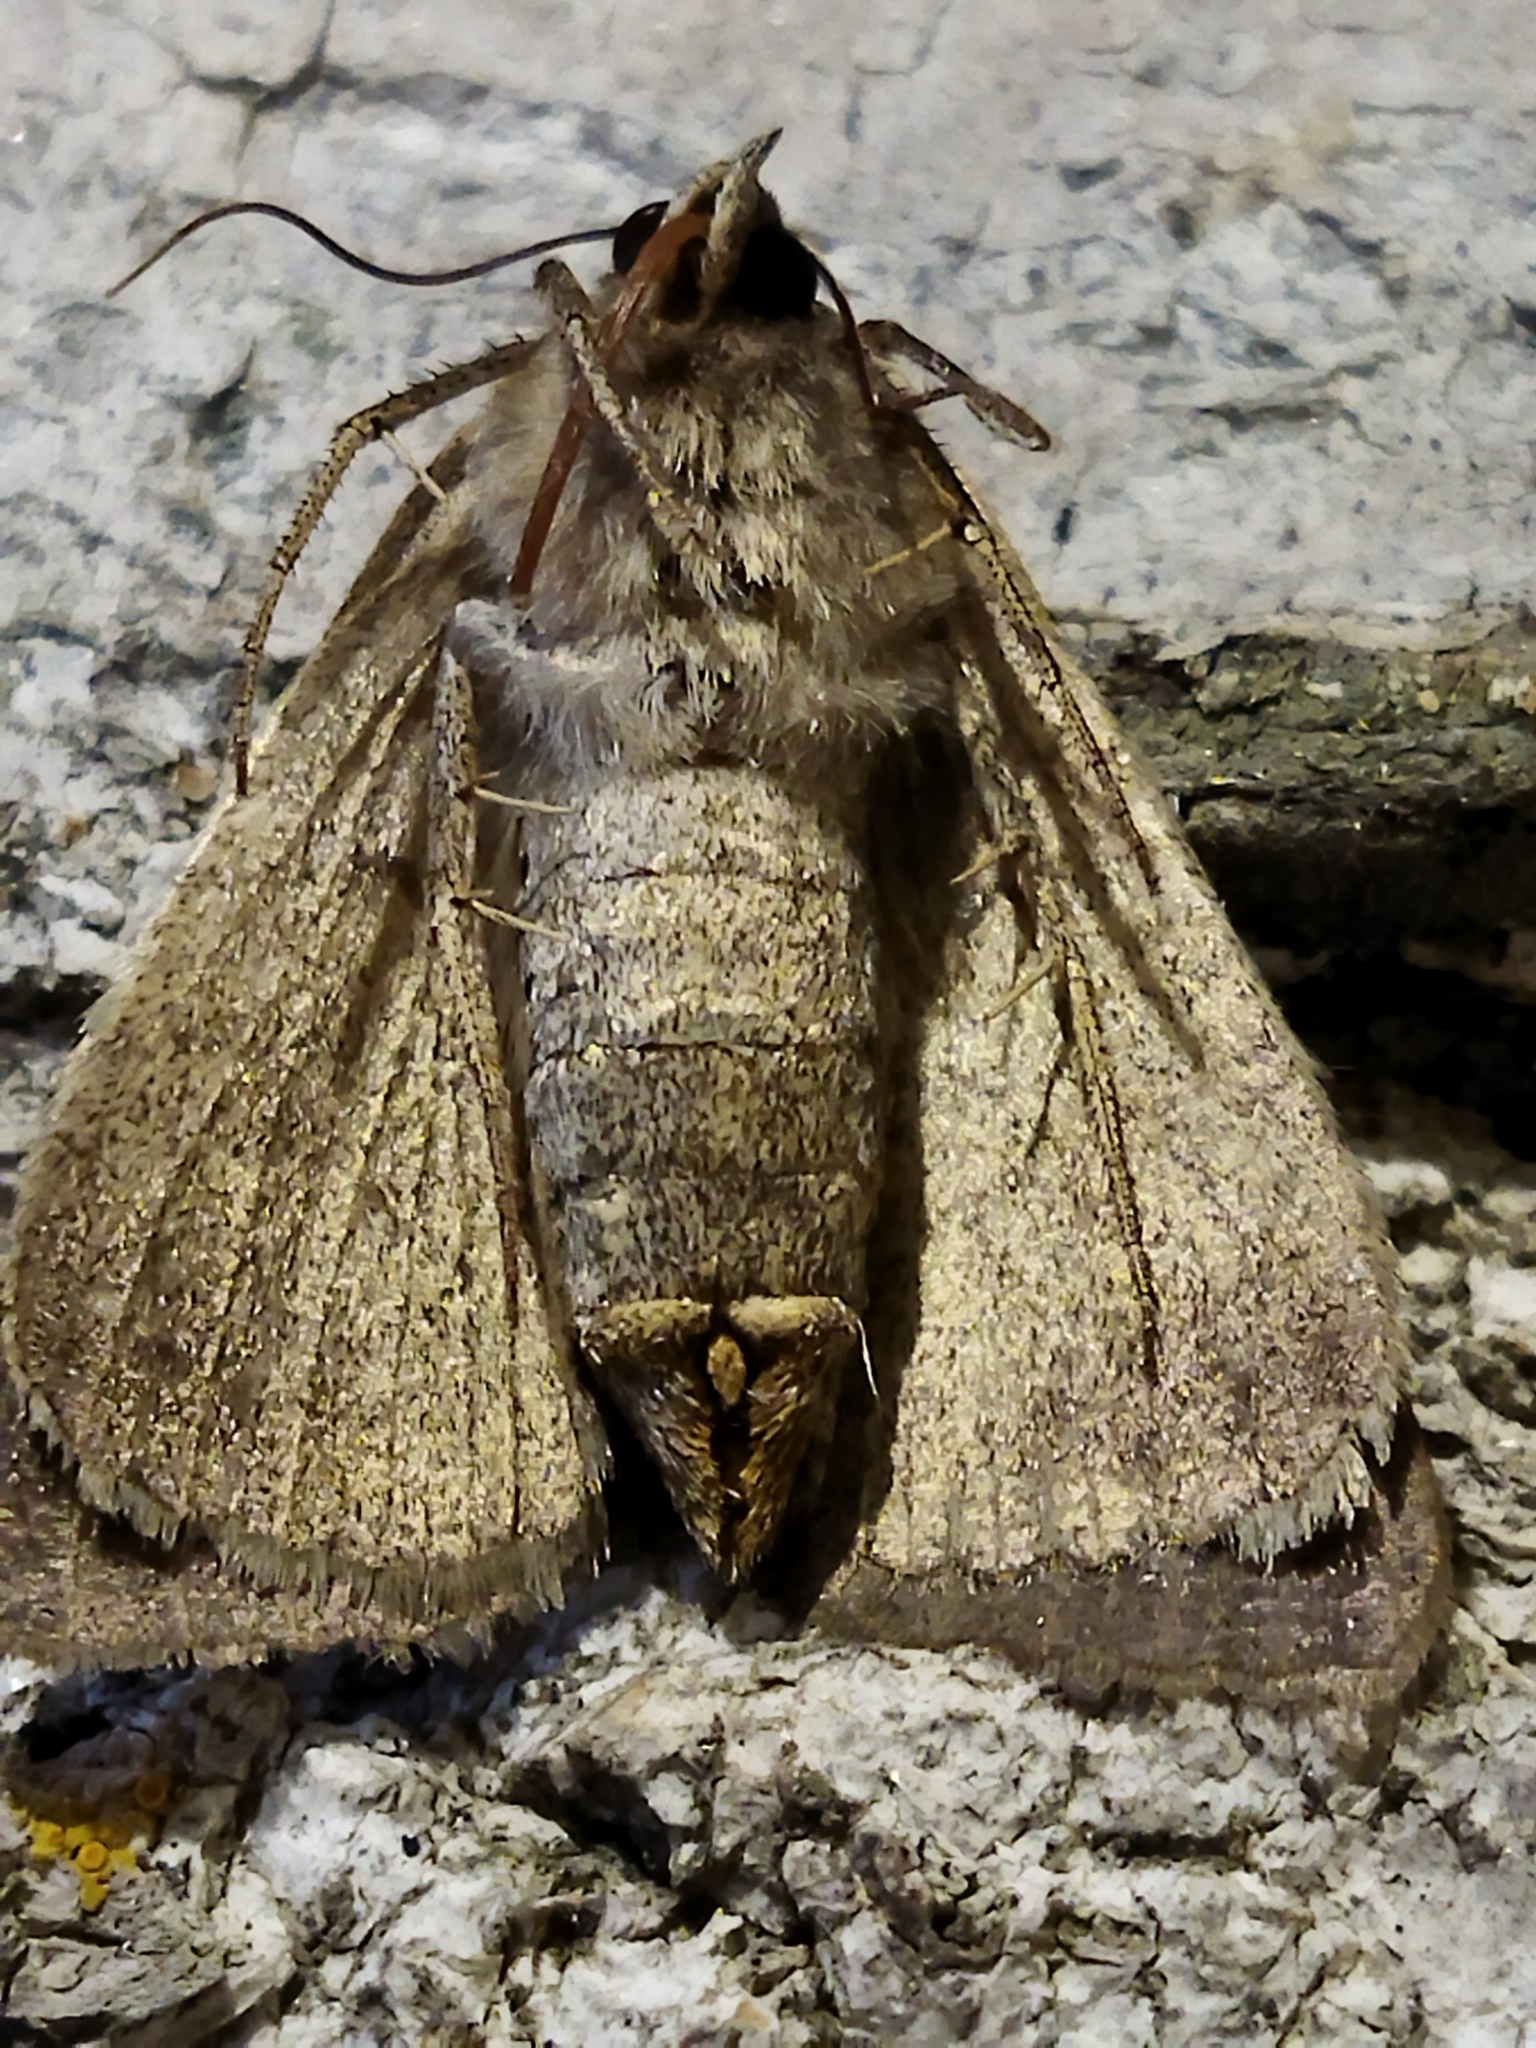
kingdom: Animalia
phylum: Arthropoda
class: Insecta
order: Lepidoptera
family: Erebidae
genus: Clytie
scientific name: Clytie syriaca
